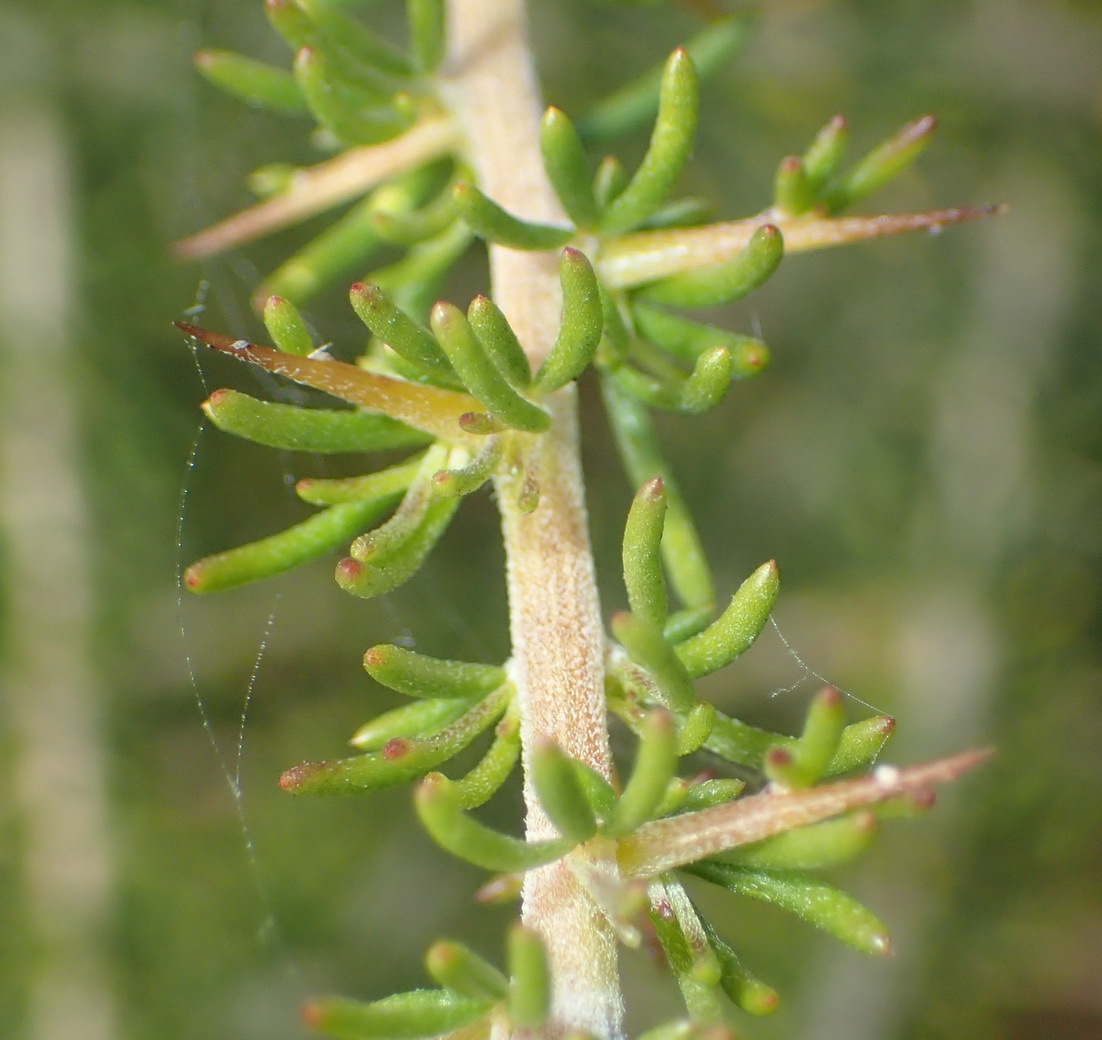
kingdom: Plantae
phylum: Tracheophyta
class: Magnoliopsida
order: Fabales
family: Fabaceae
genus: Aspalathus
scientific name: Aspalathus spinosa
